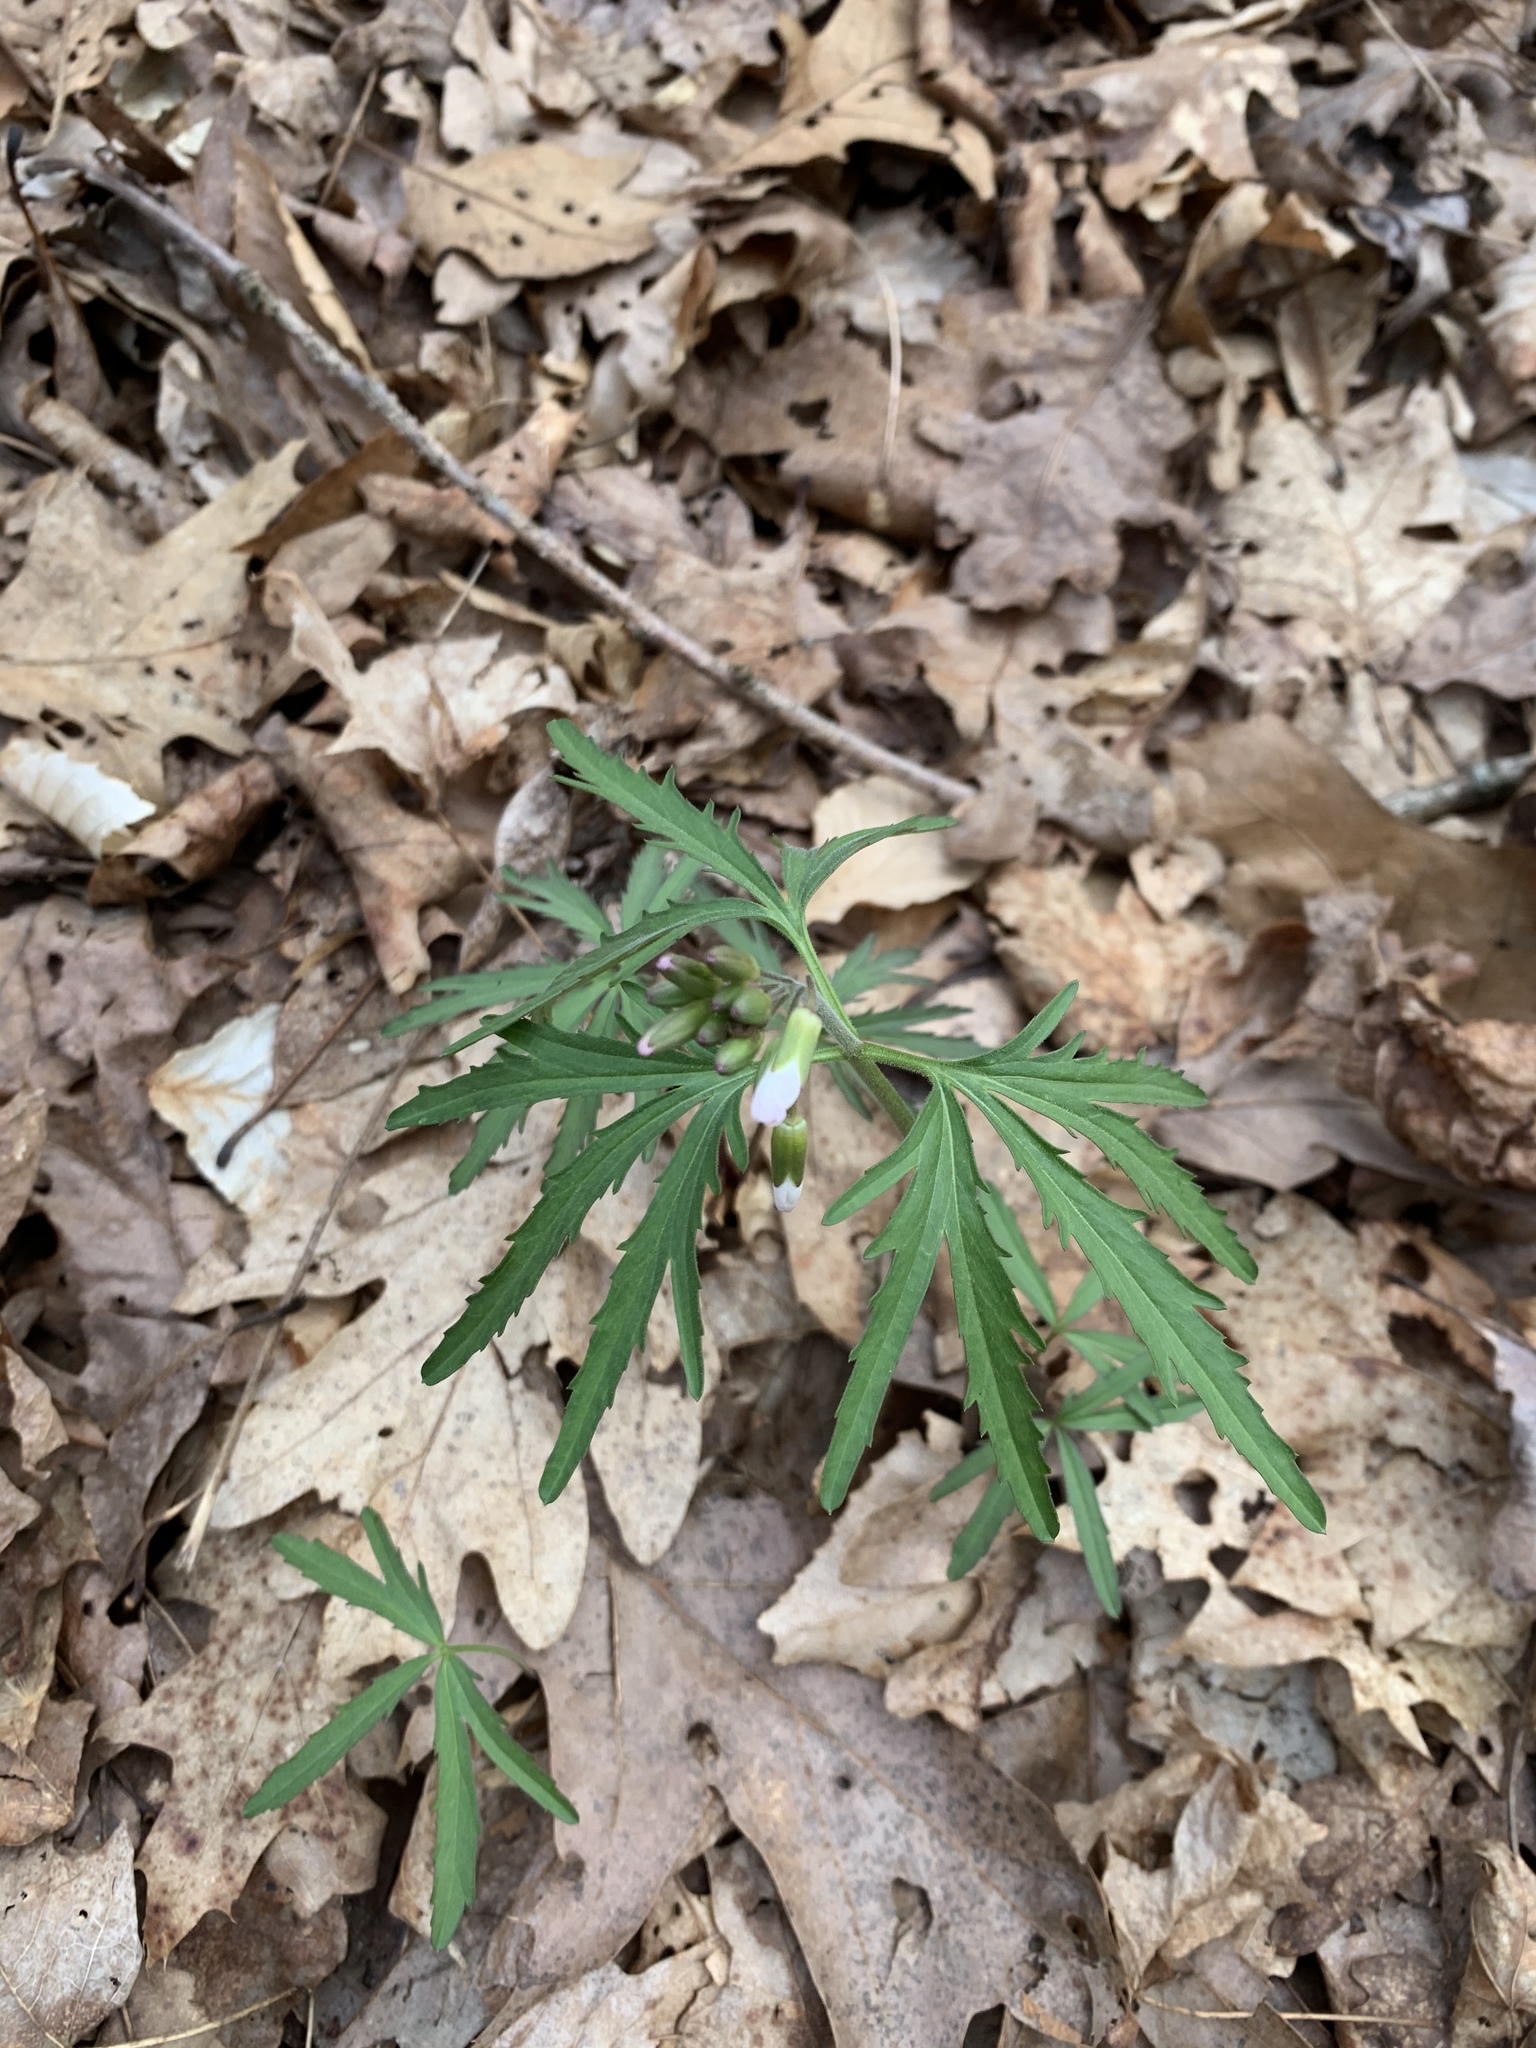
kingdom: Plantae
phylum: Tracheophyta
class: Magnoliopsida
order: Brassicales
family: Brassicaceae
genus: Cardamine
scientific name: Cardamine concatenata
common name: Cut-leaf toothcup
